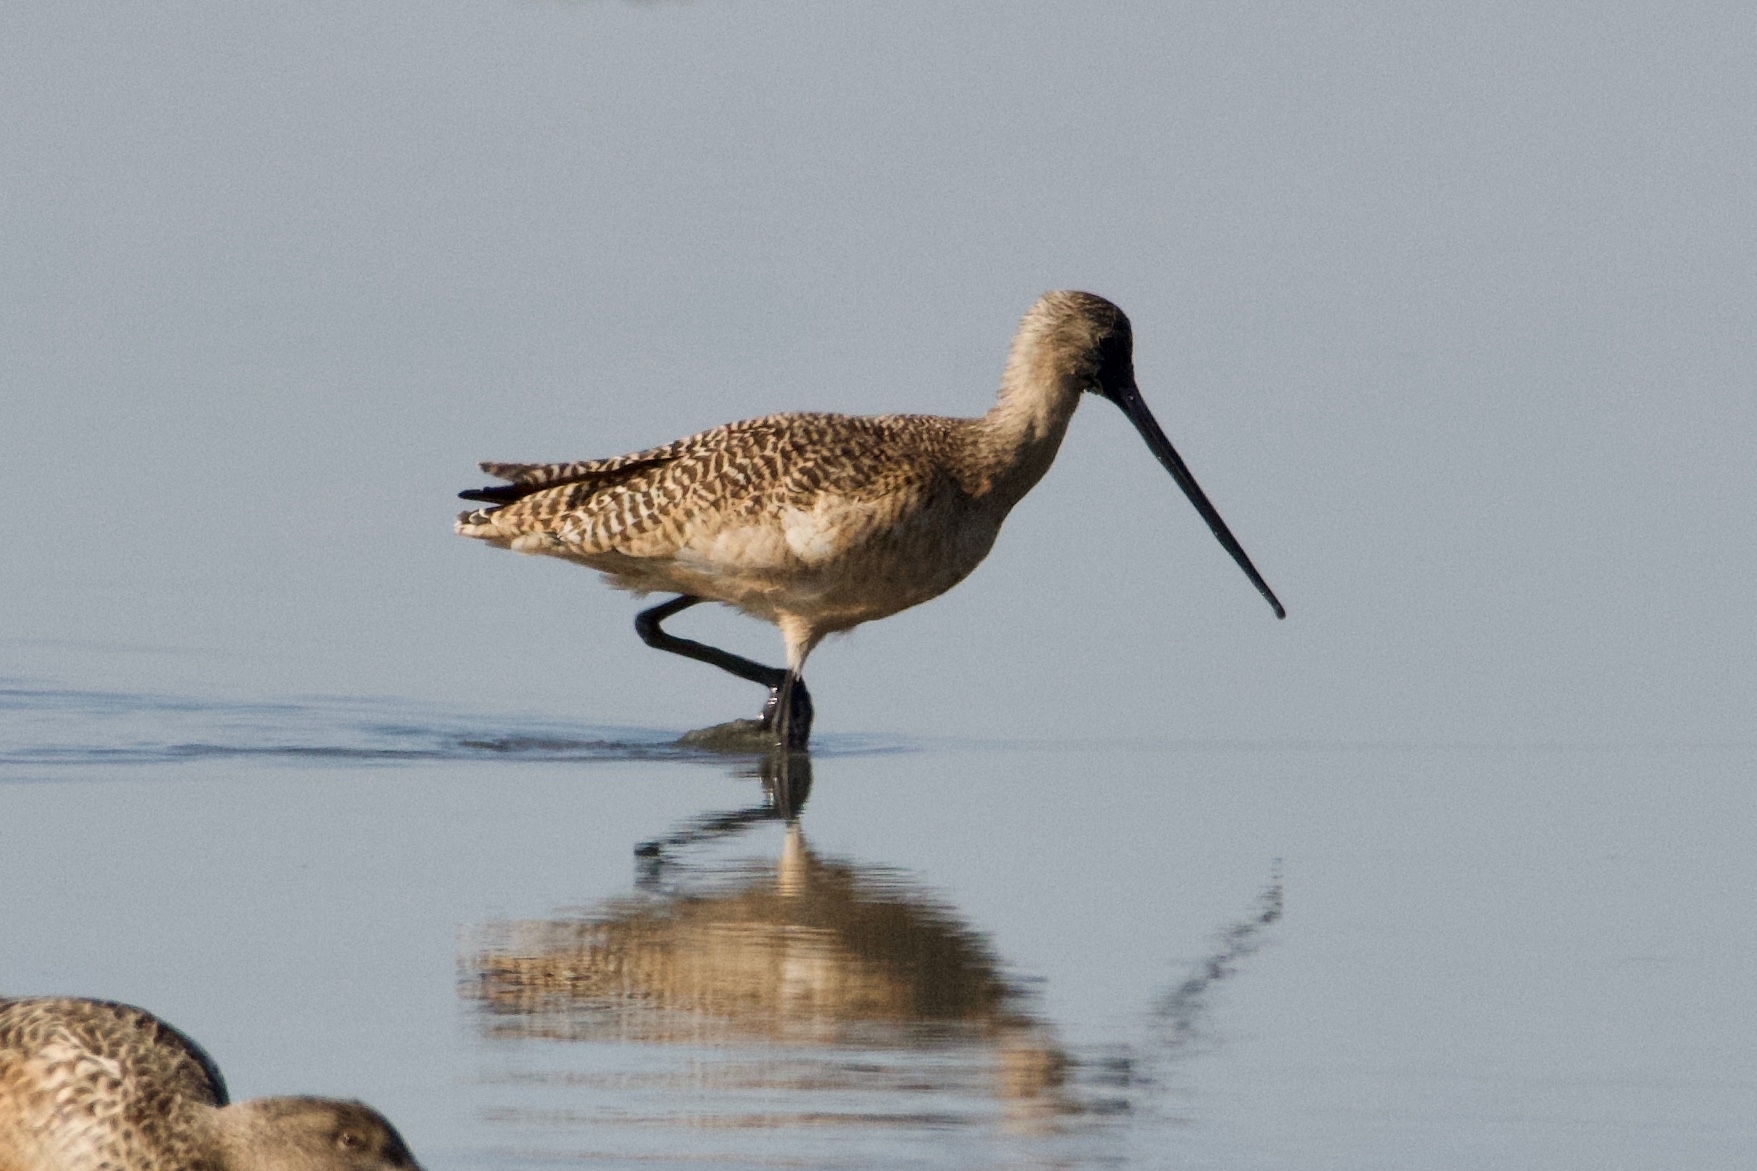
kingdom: Animalia
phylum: Chordata
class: Aves
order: Charadriiformes
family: Scolopacidae
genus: Limosa
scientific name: Limosa fedoa
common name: Marbled godwit
